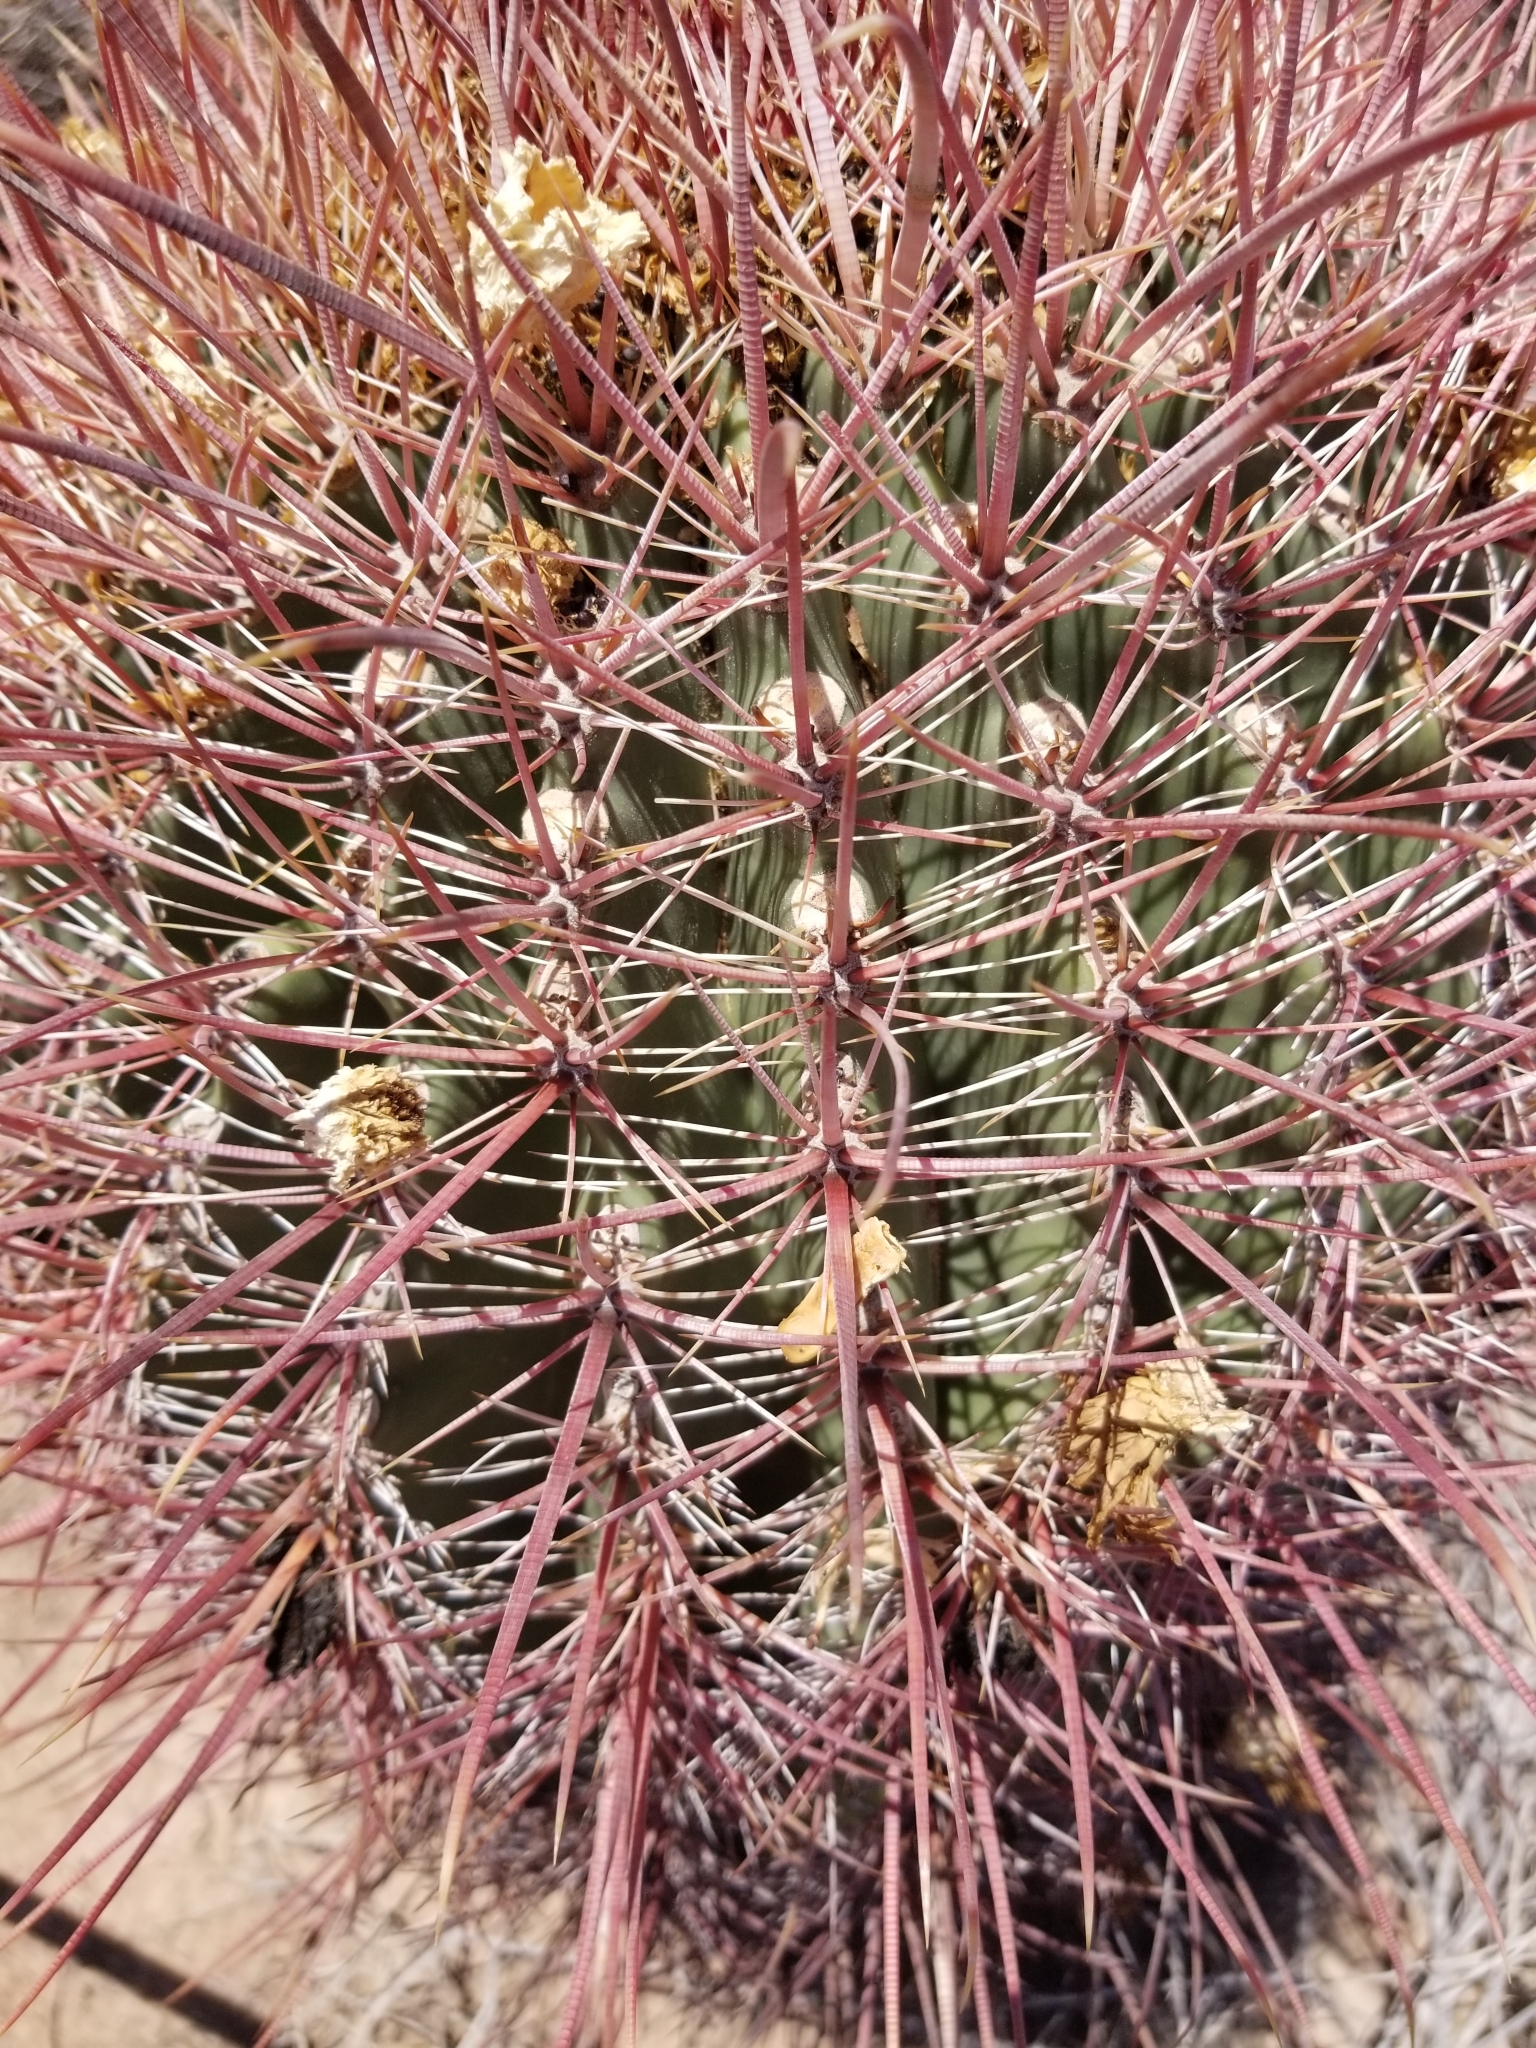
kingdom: Plantae
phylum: Tracheophyta
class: Magnoliopsida
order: Caryophyllales
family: Cactaceae
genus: Ferocactus
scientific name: Ferocactus cylindraceus
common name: California barrel cactus
